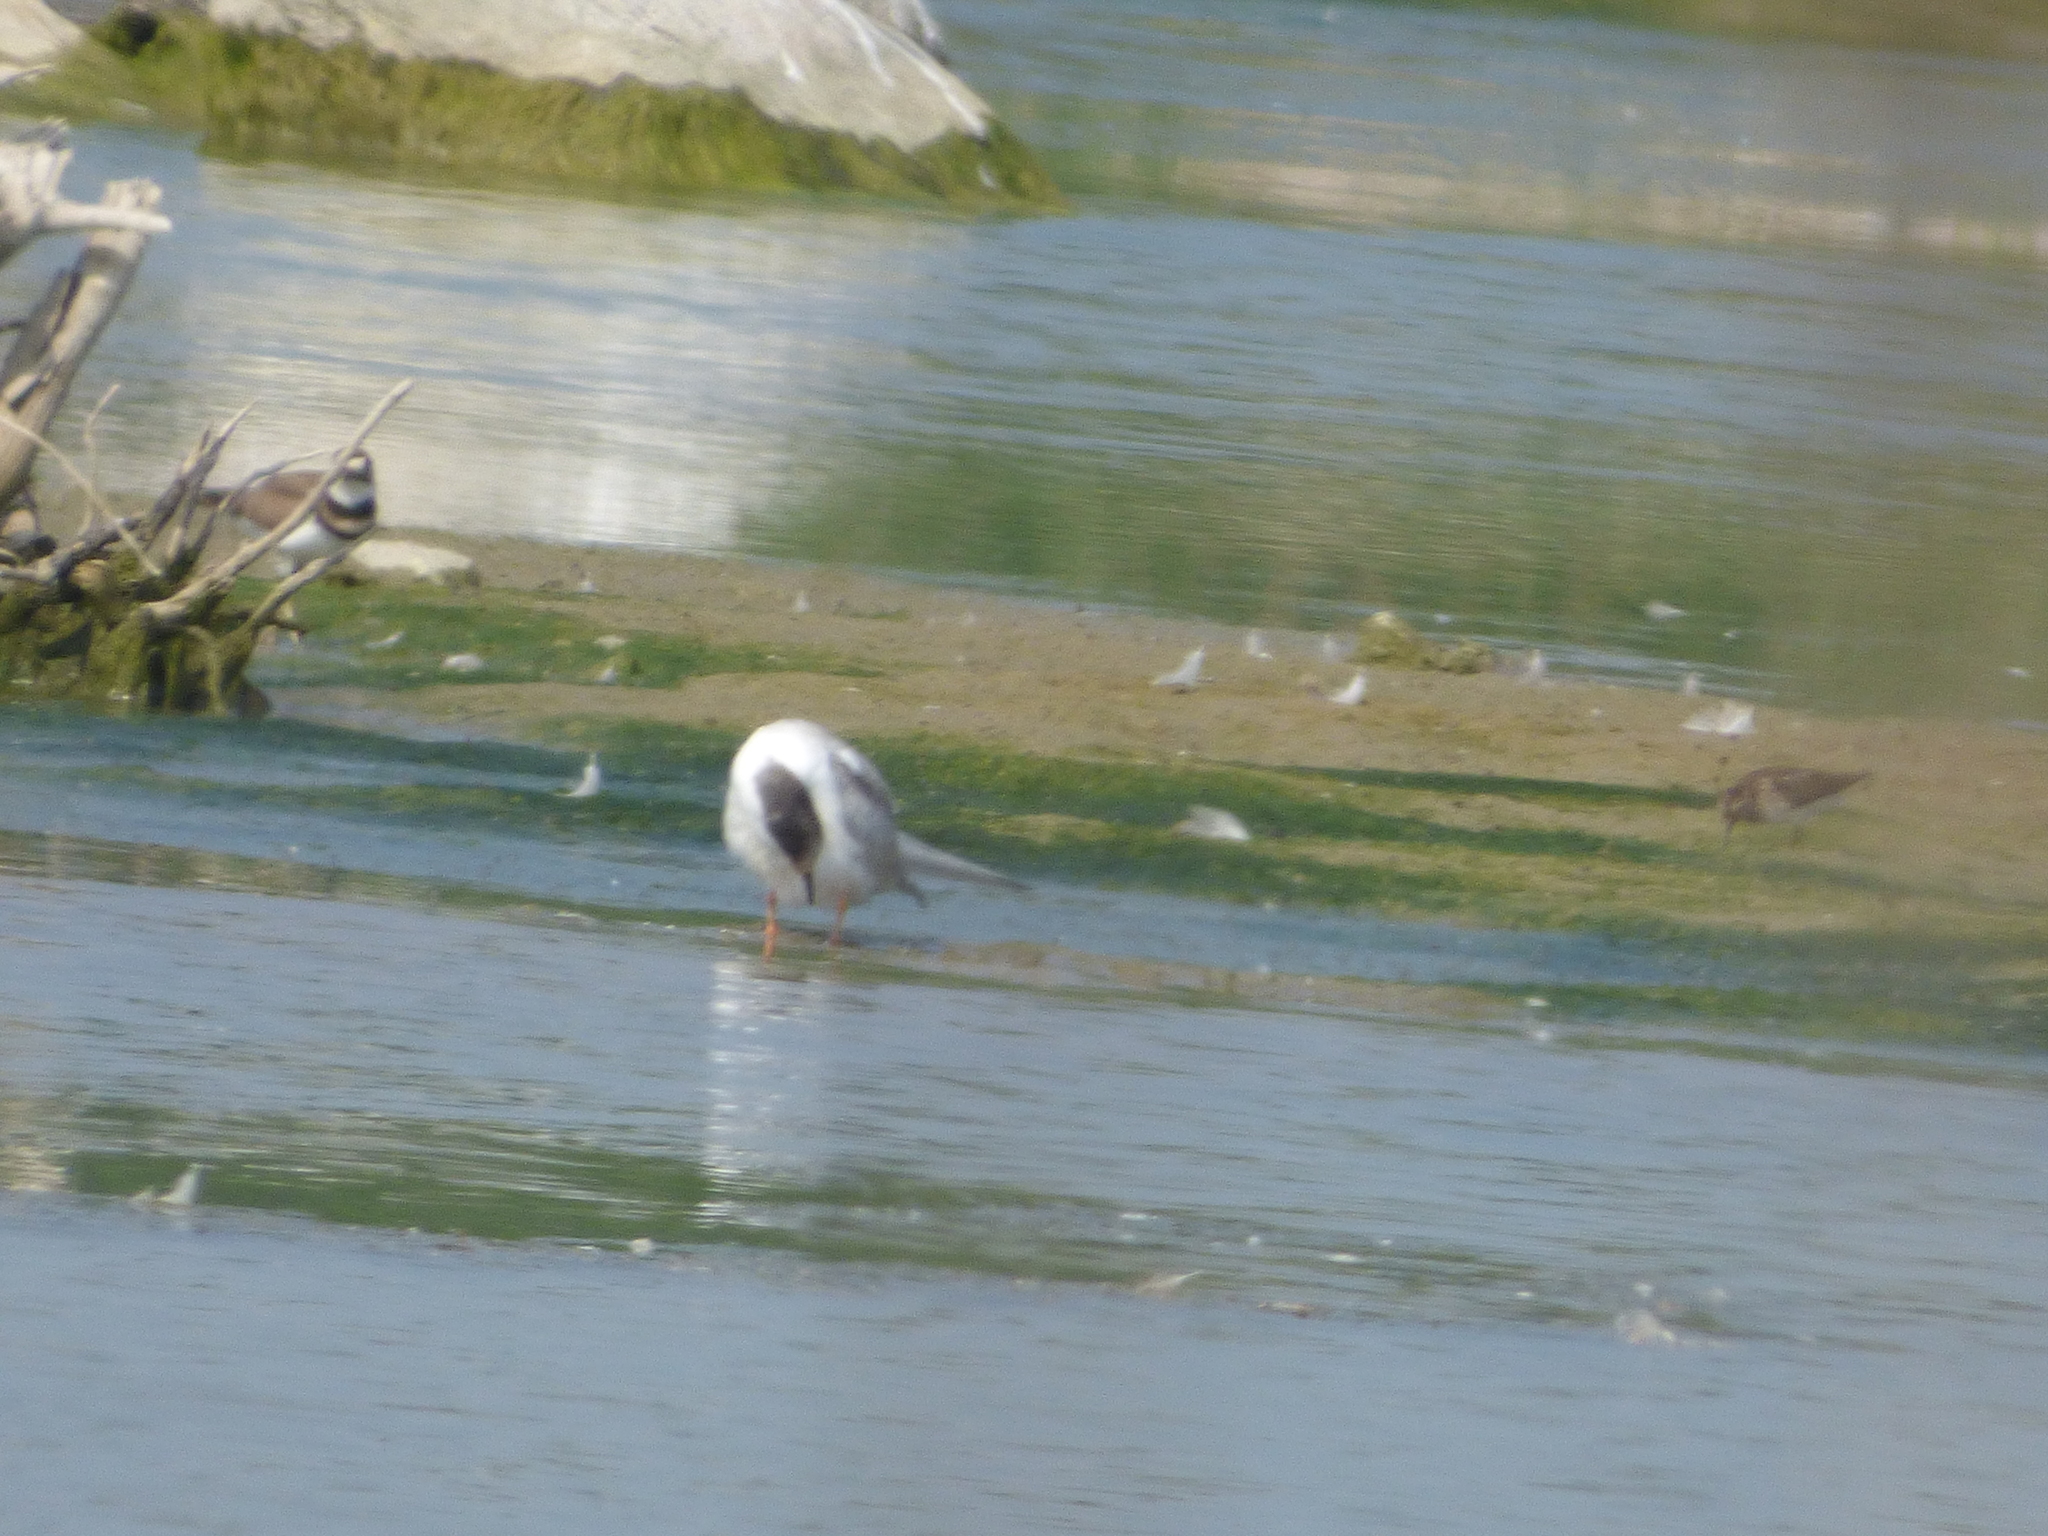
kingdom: Animalia
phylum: Chordata
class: Aves
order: Charadriiformes
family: Laridae
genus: Sterna
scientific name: Sterna hirundo
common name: Common tern
